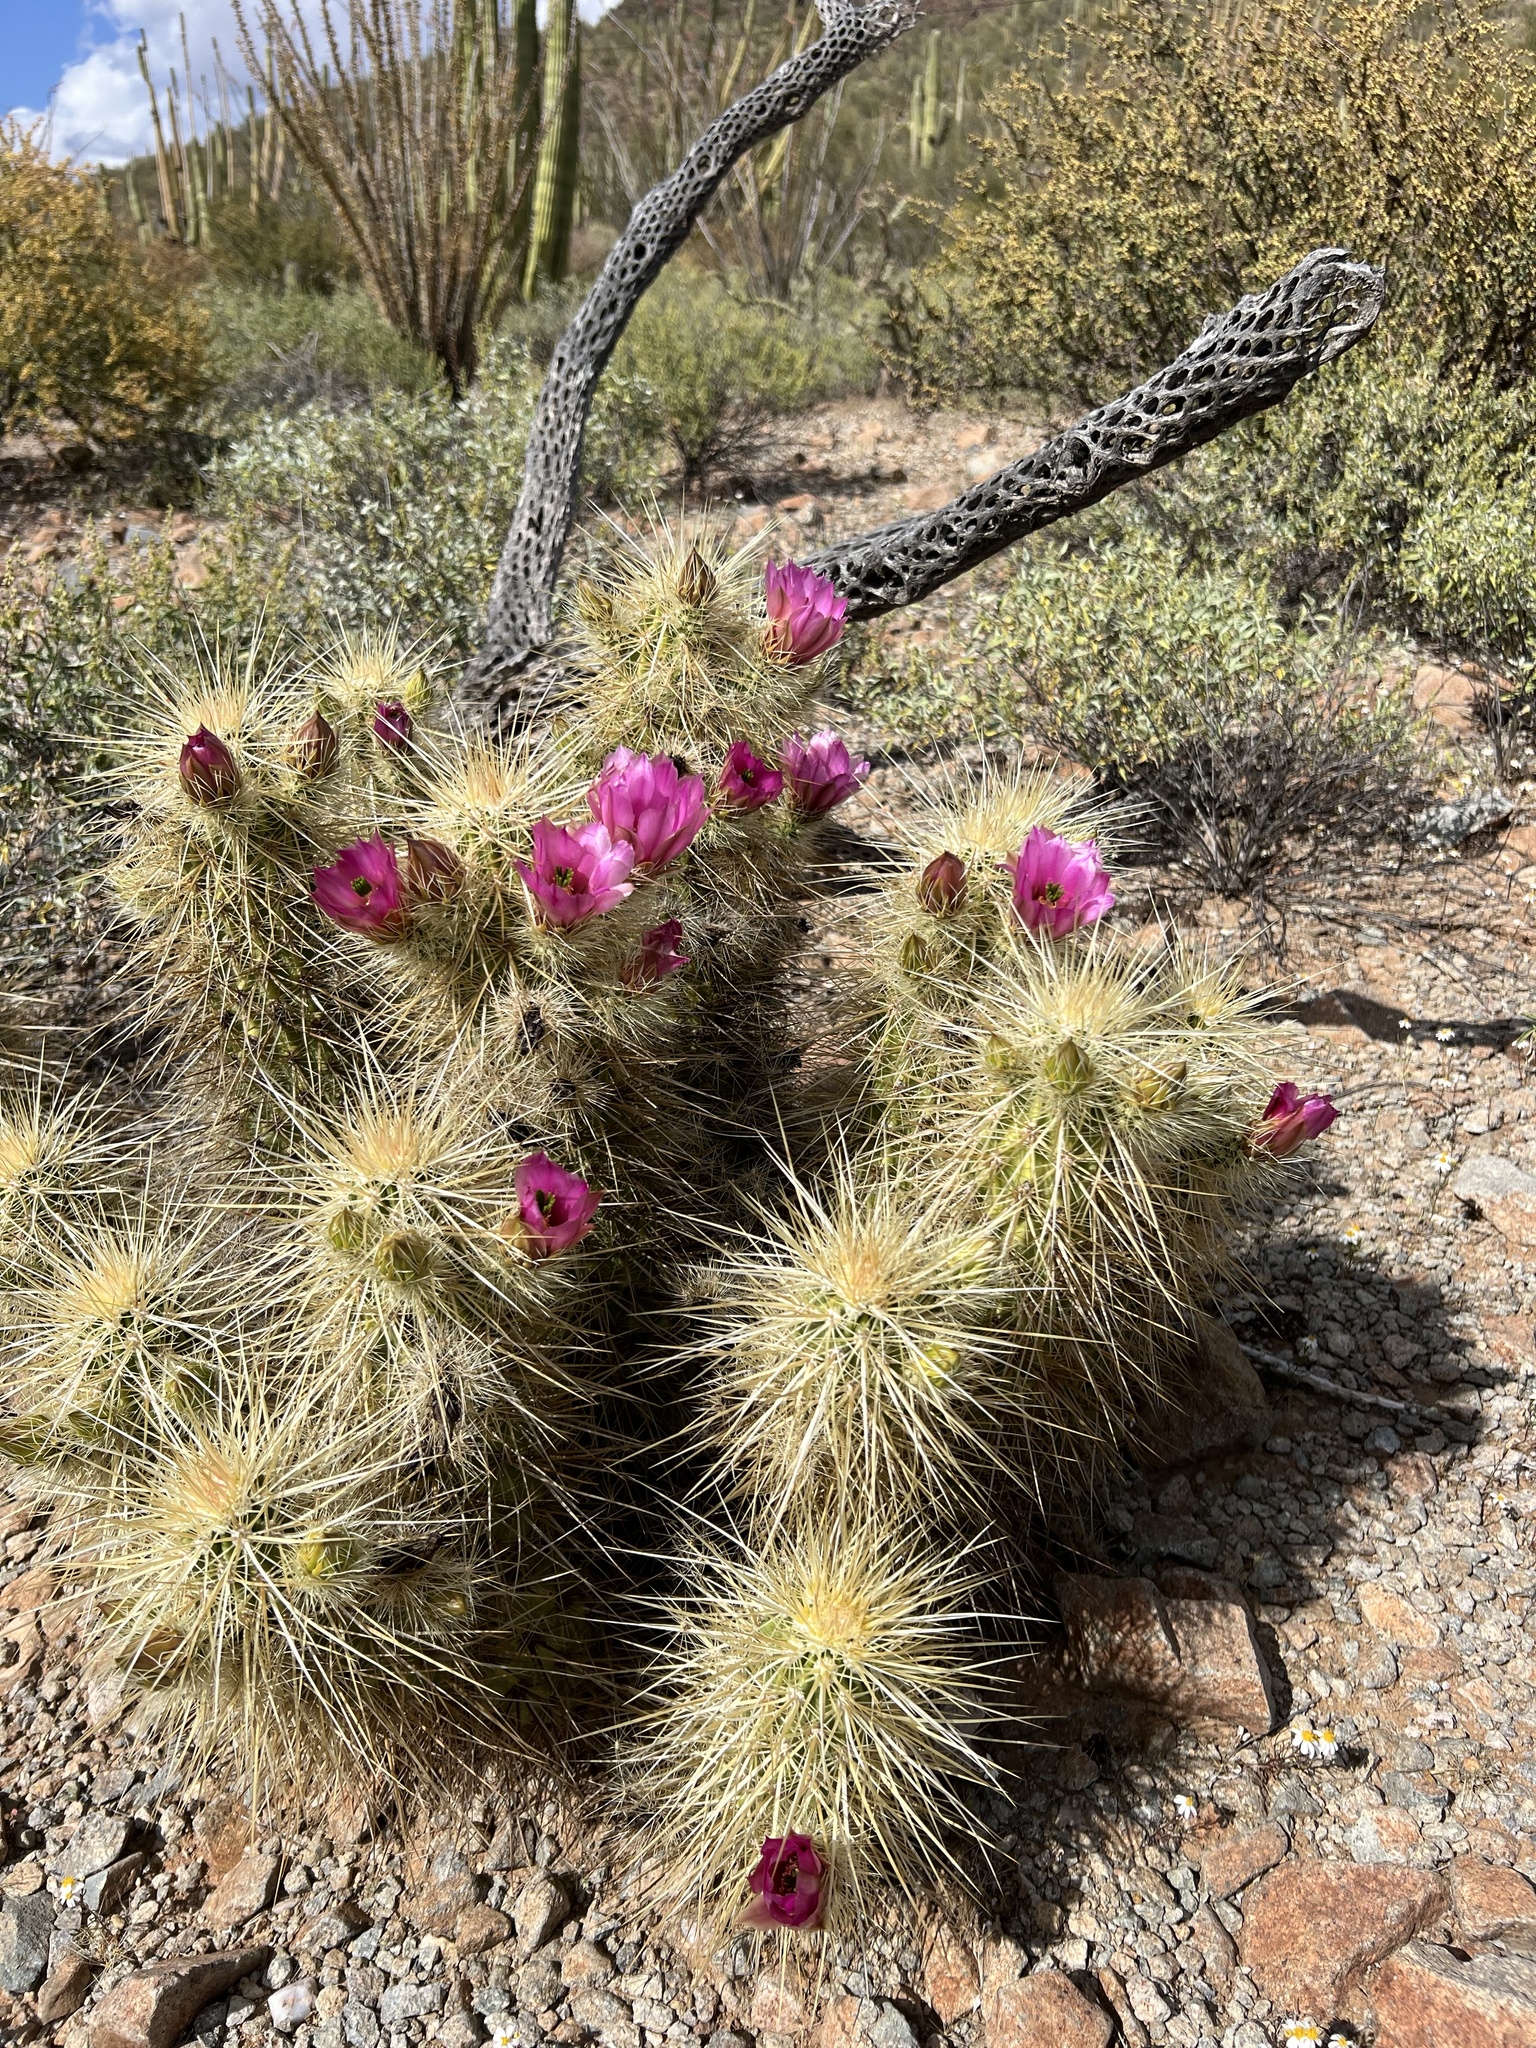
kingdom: Plantae
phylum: Tracheophyta
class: Magnoliopsida
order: Caryophyllales
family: Cactaceae
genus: Echinocereus
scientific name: Echinocereus nicholii
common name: Nichol's hedgehog cactus
